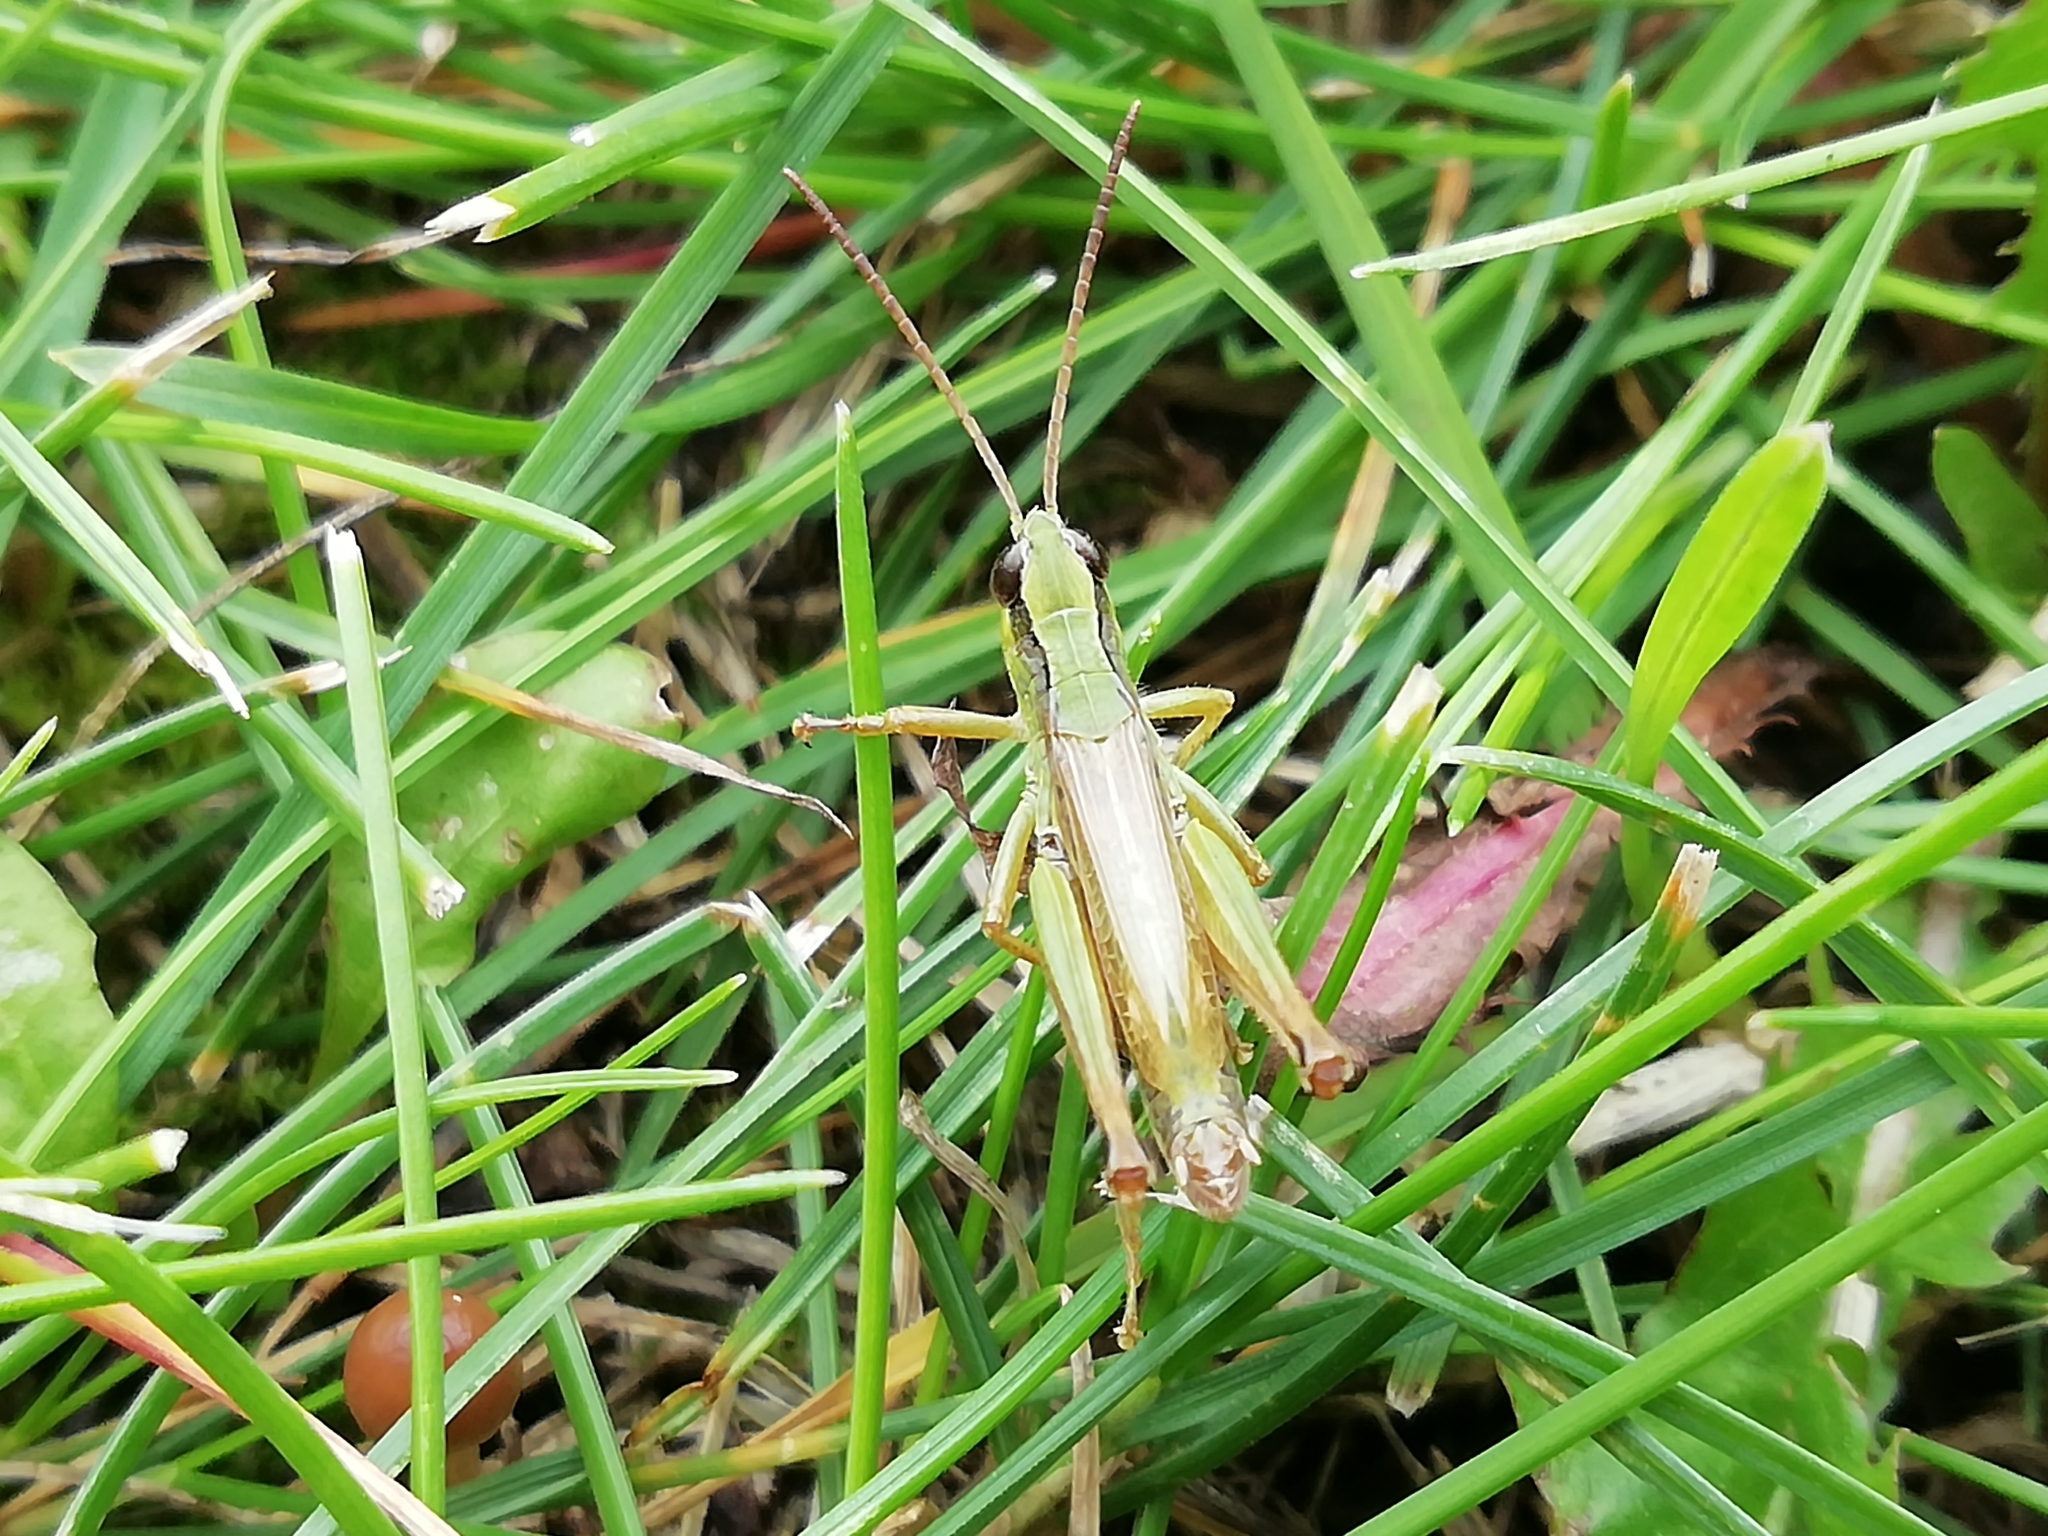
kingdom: Animalia
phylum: Arthropoda
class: Insecta
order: Orthoptera
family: Acrididae
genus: Chorthippus
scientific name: Chorthippus fallax
